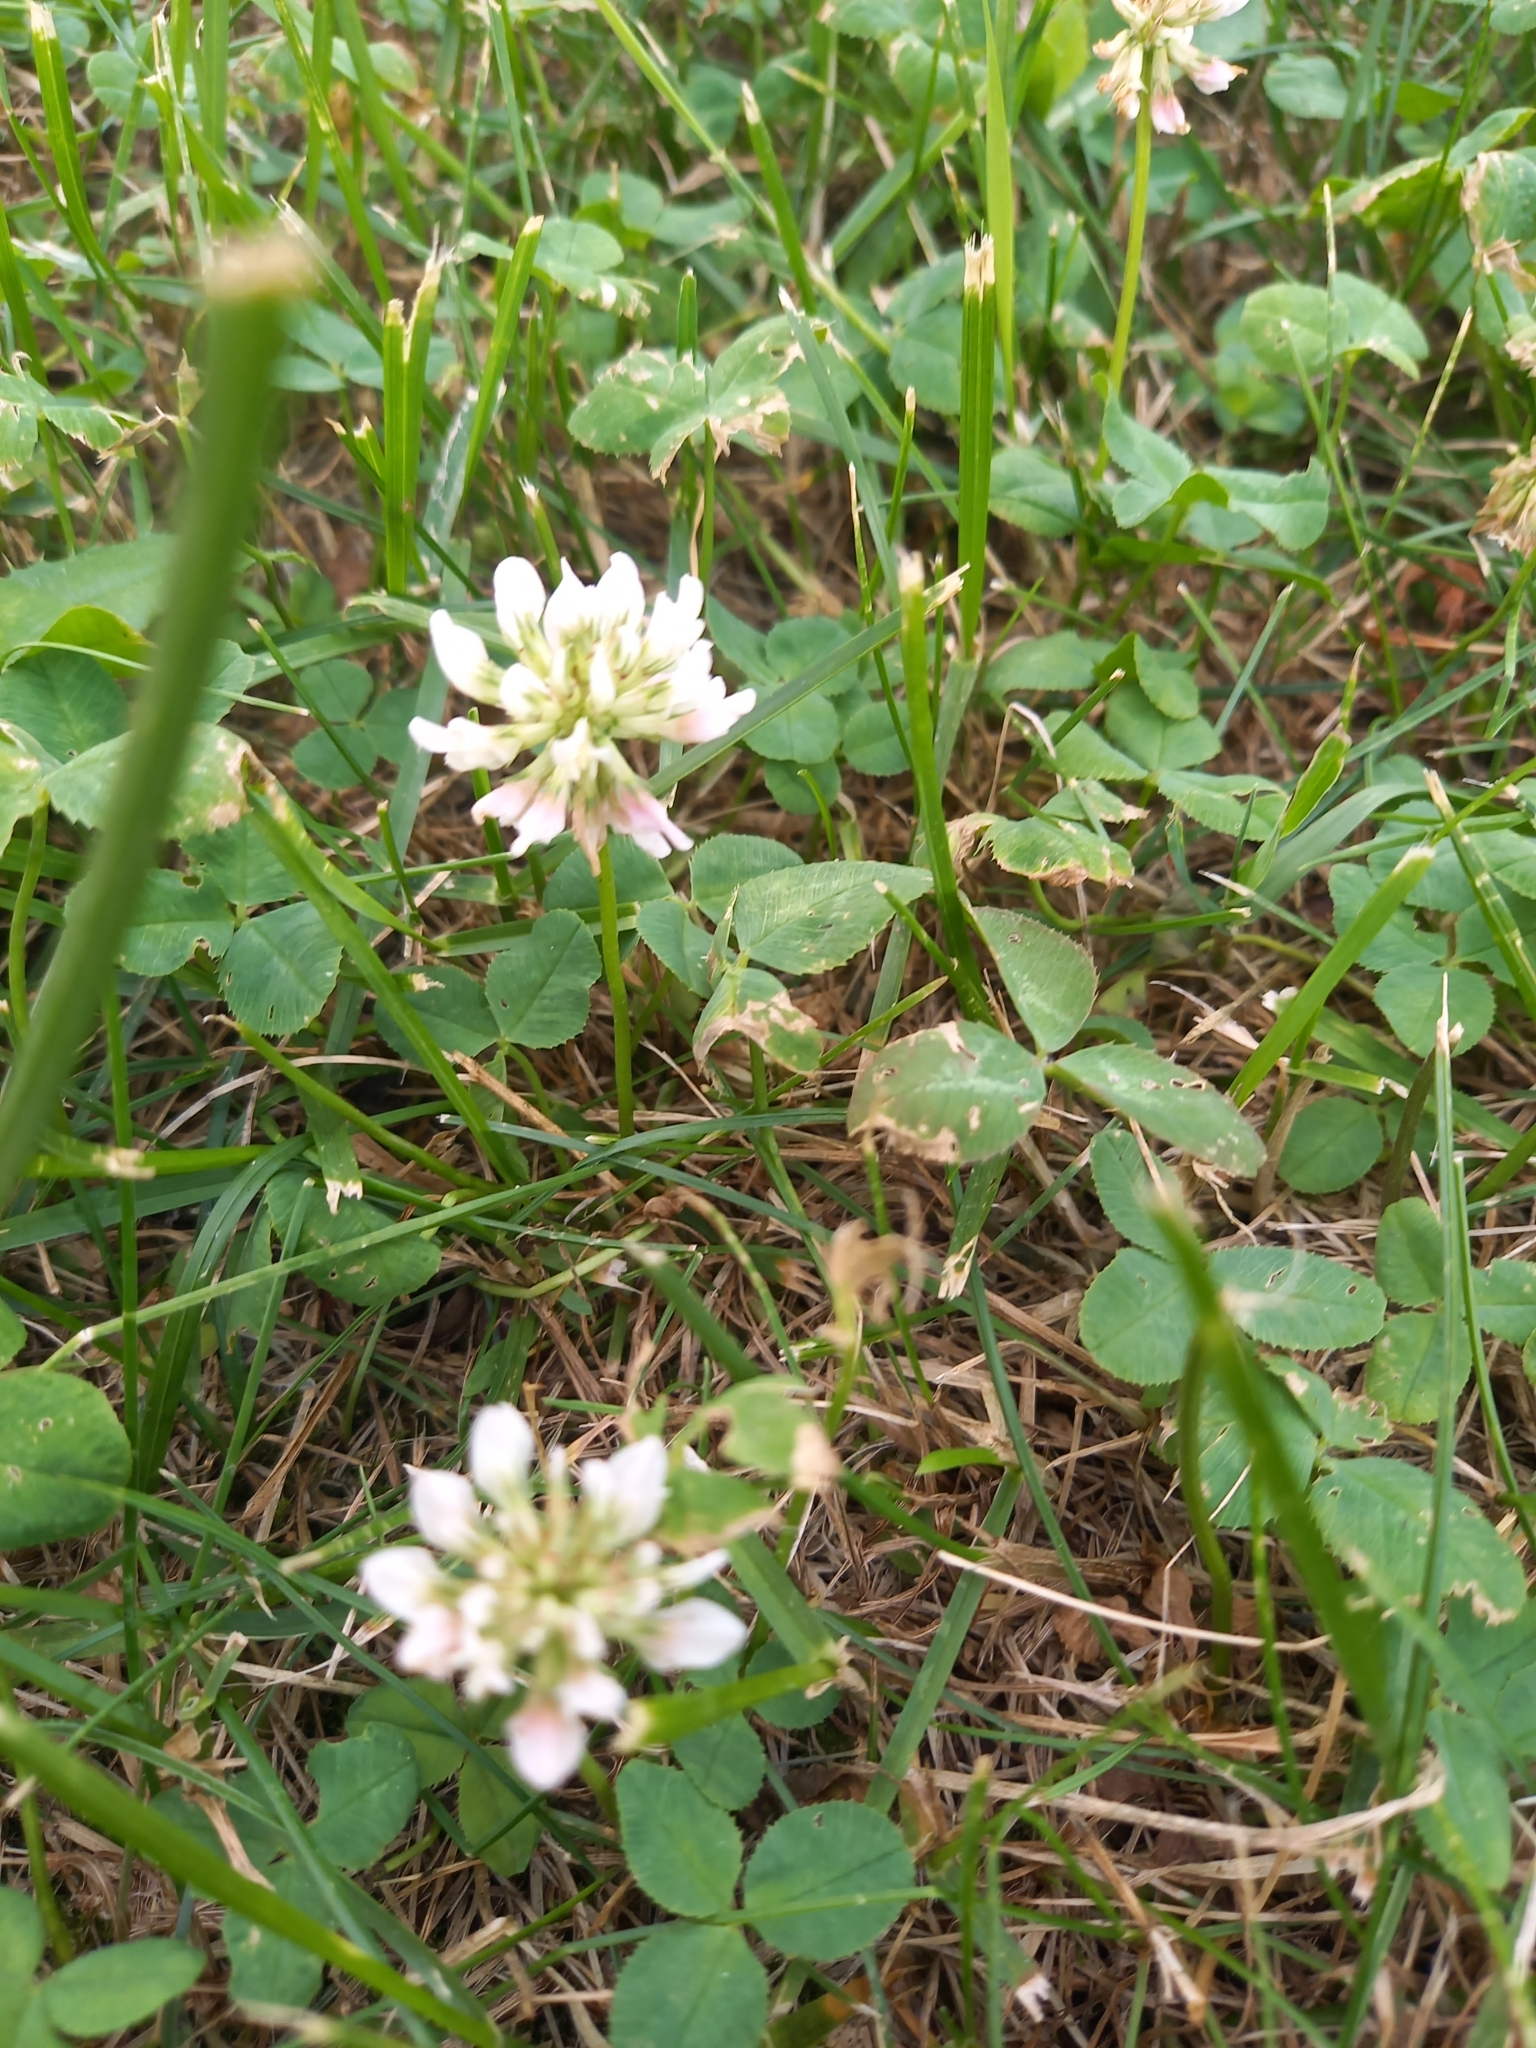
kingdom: Plantae
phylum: Tracheophyta
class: Magnoliopsida
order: Fabales
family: Fabaceae
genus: Trifolium
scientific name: Trifolium repens
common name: White clover
